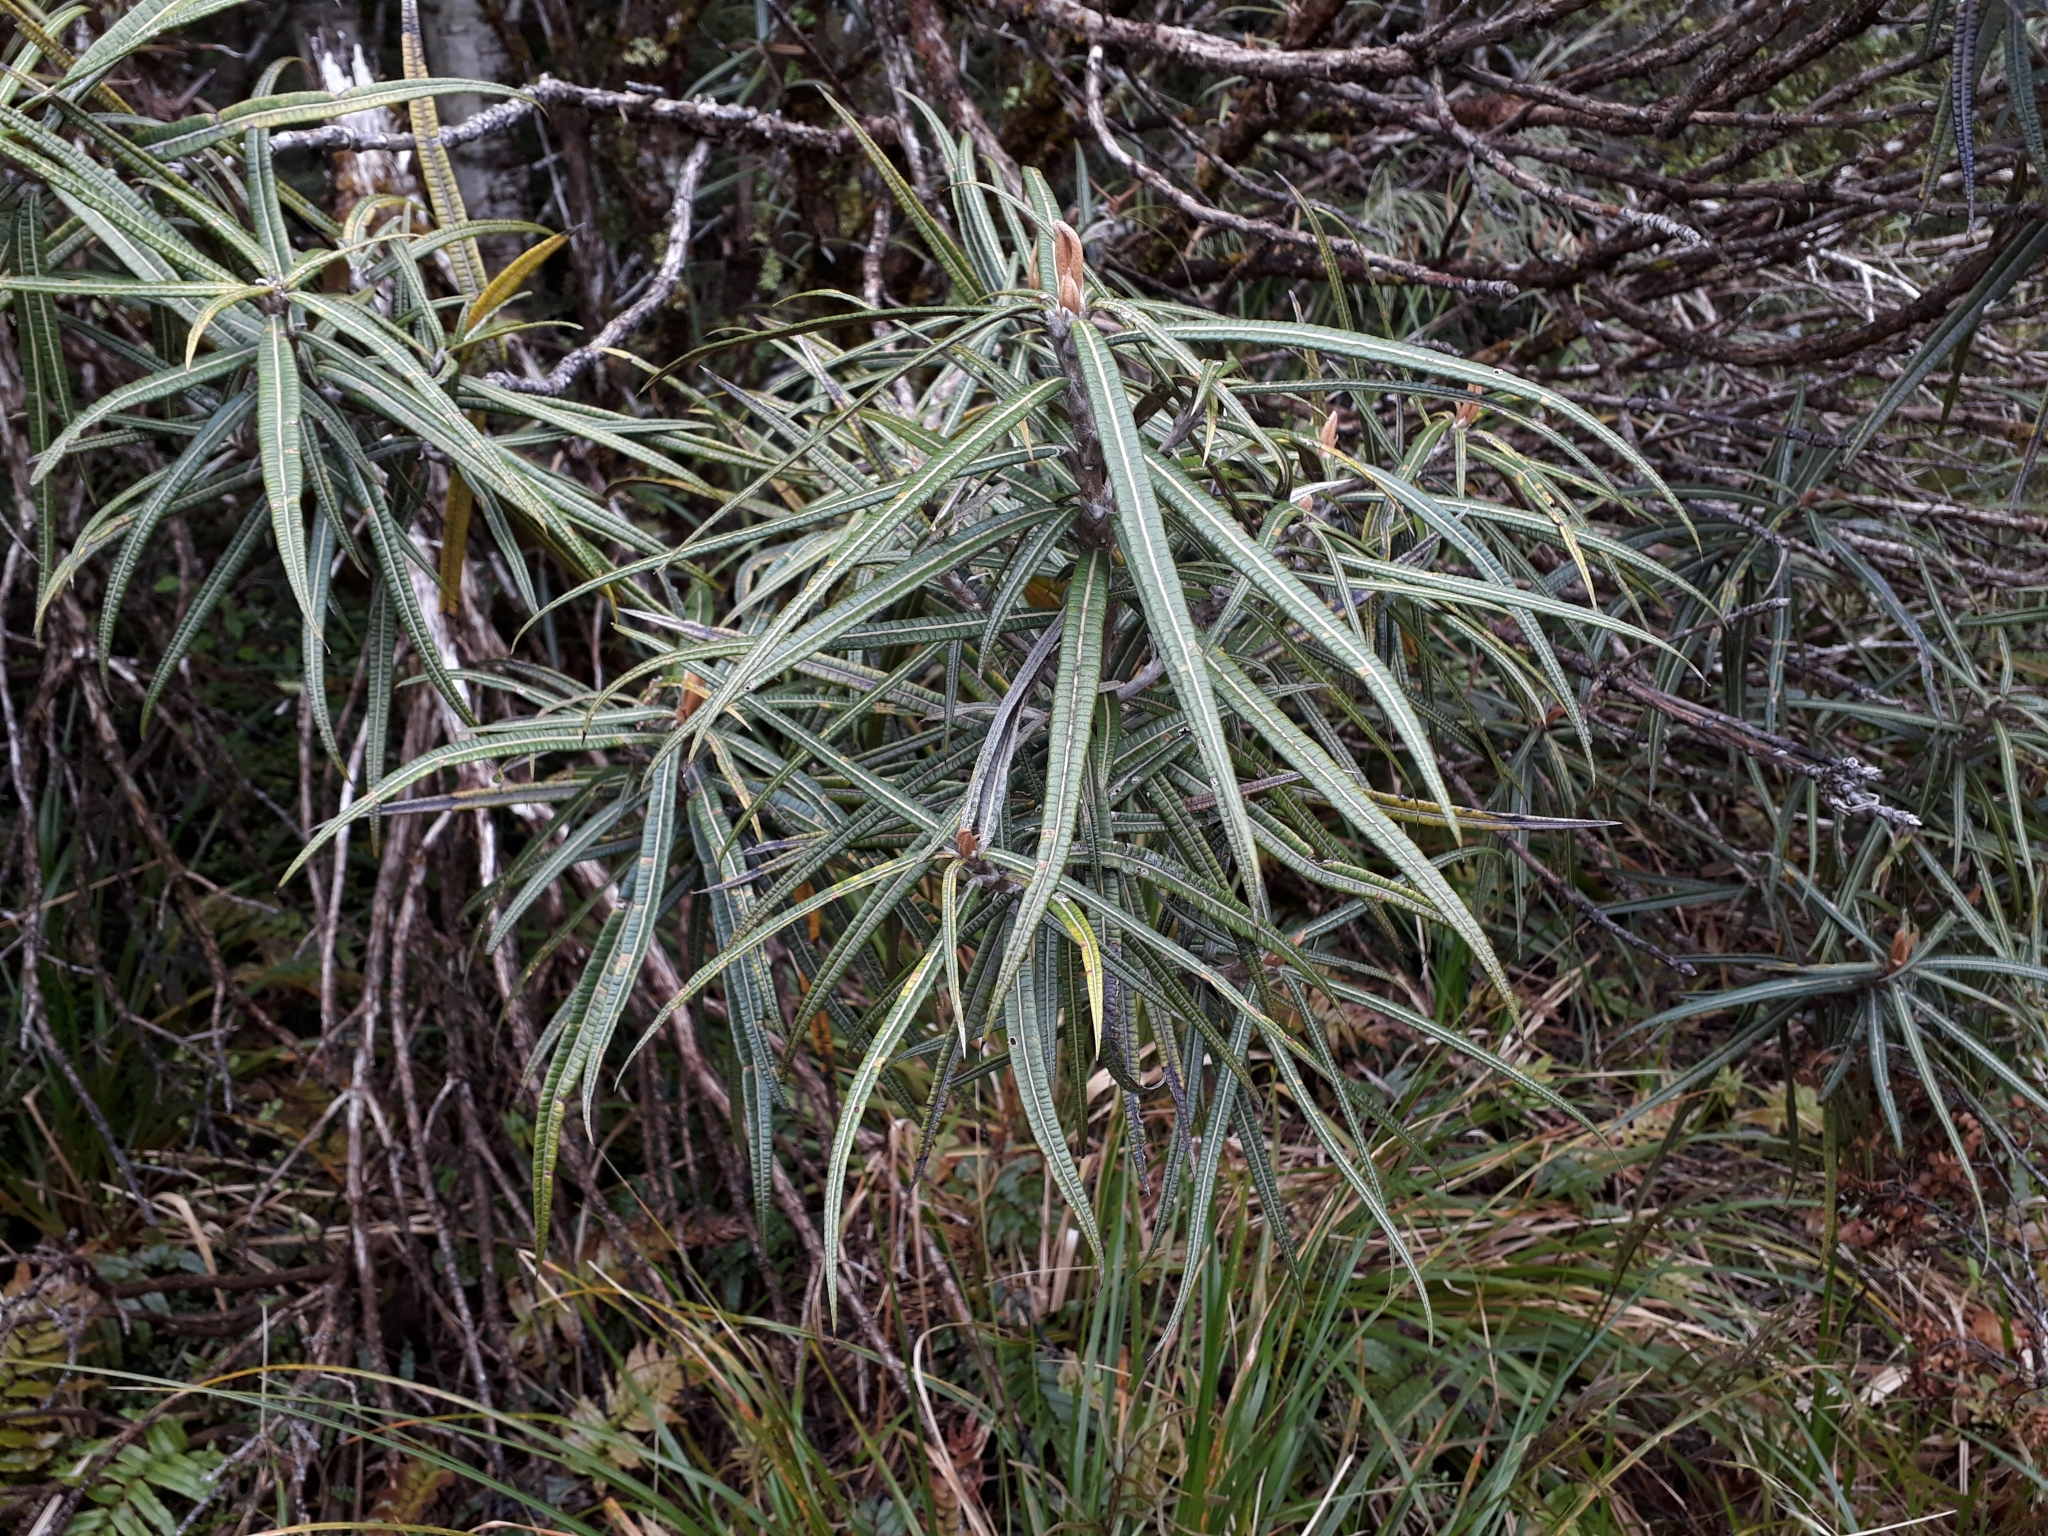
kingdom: Plantae
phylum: Tracheophyta
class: Magnoliopsida
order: Asterales
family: Asteraceae
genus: Olearia
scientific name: Olearia lacunosa
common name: Lancewood tree daisy
